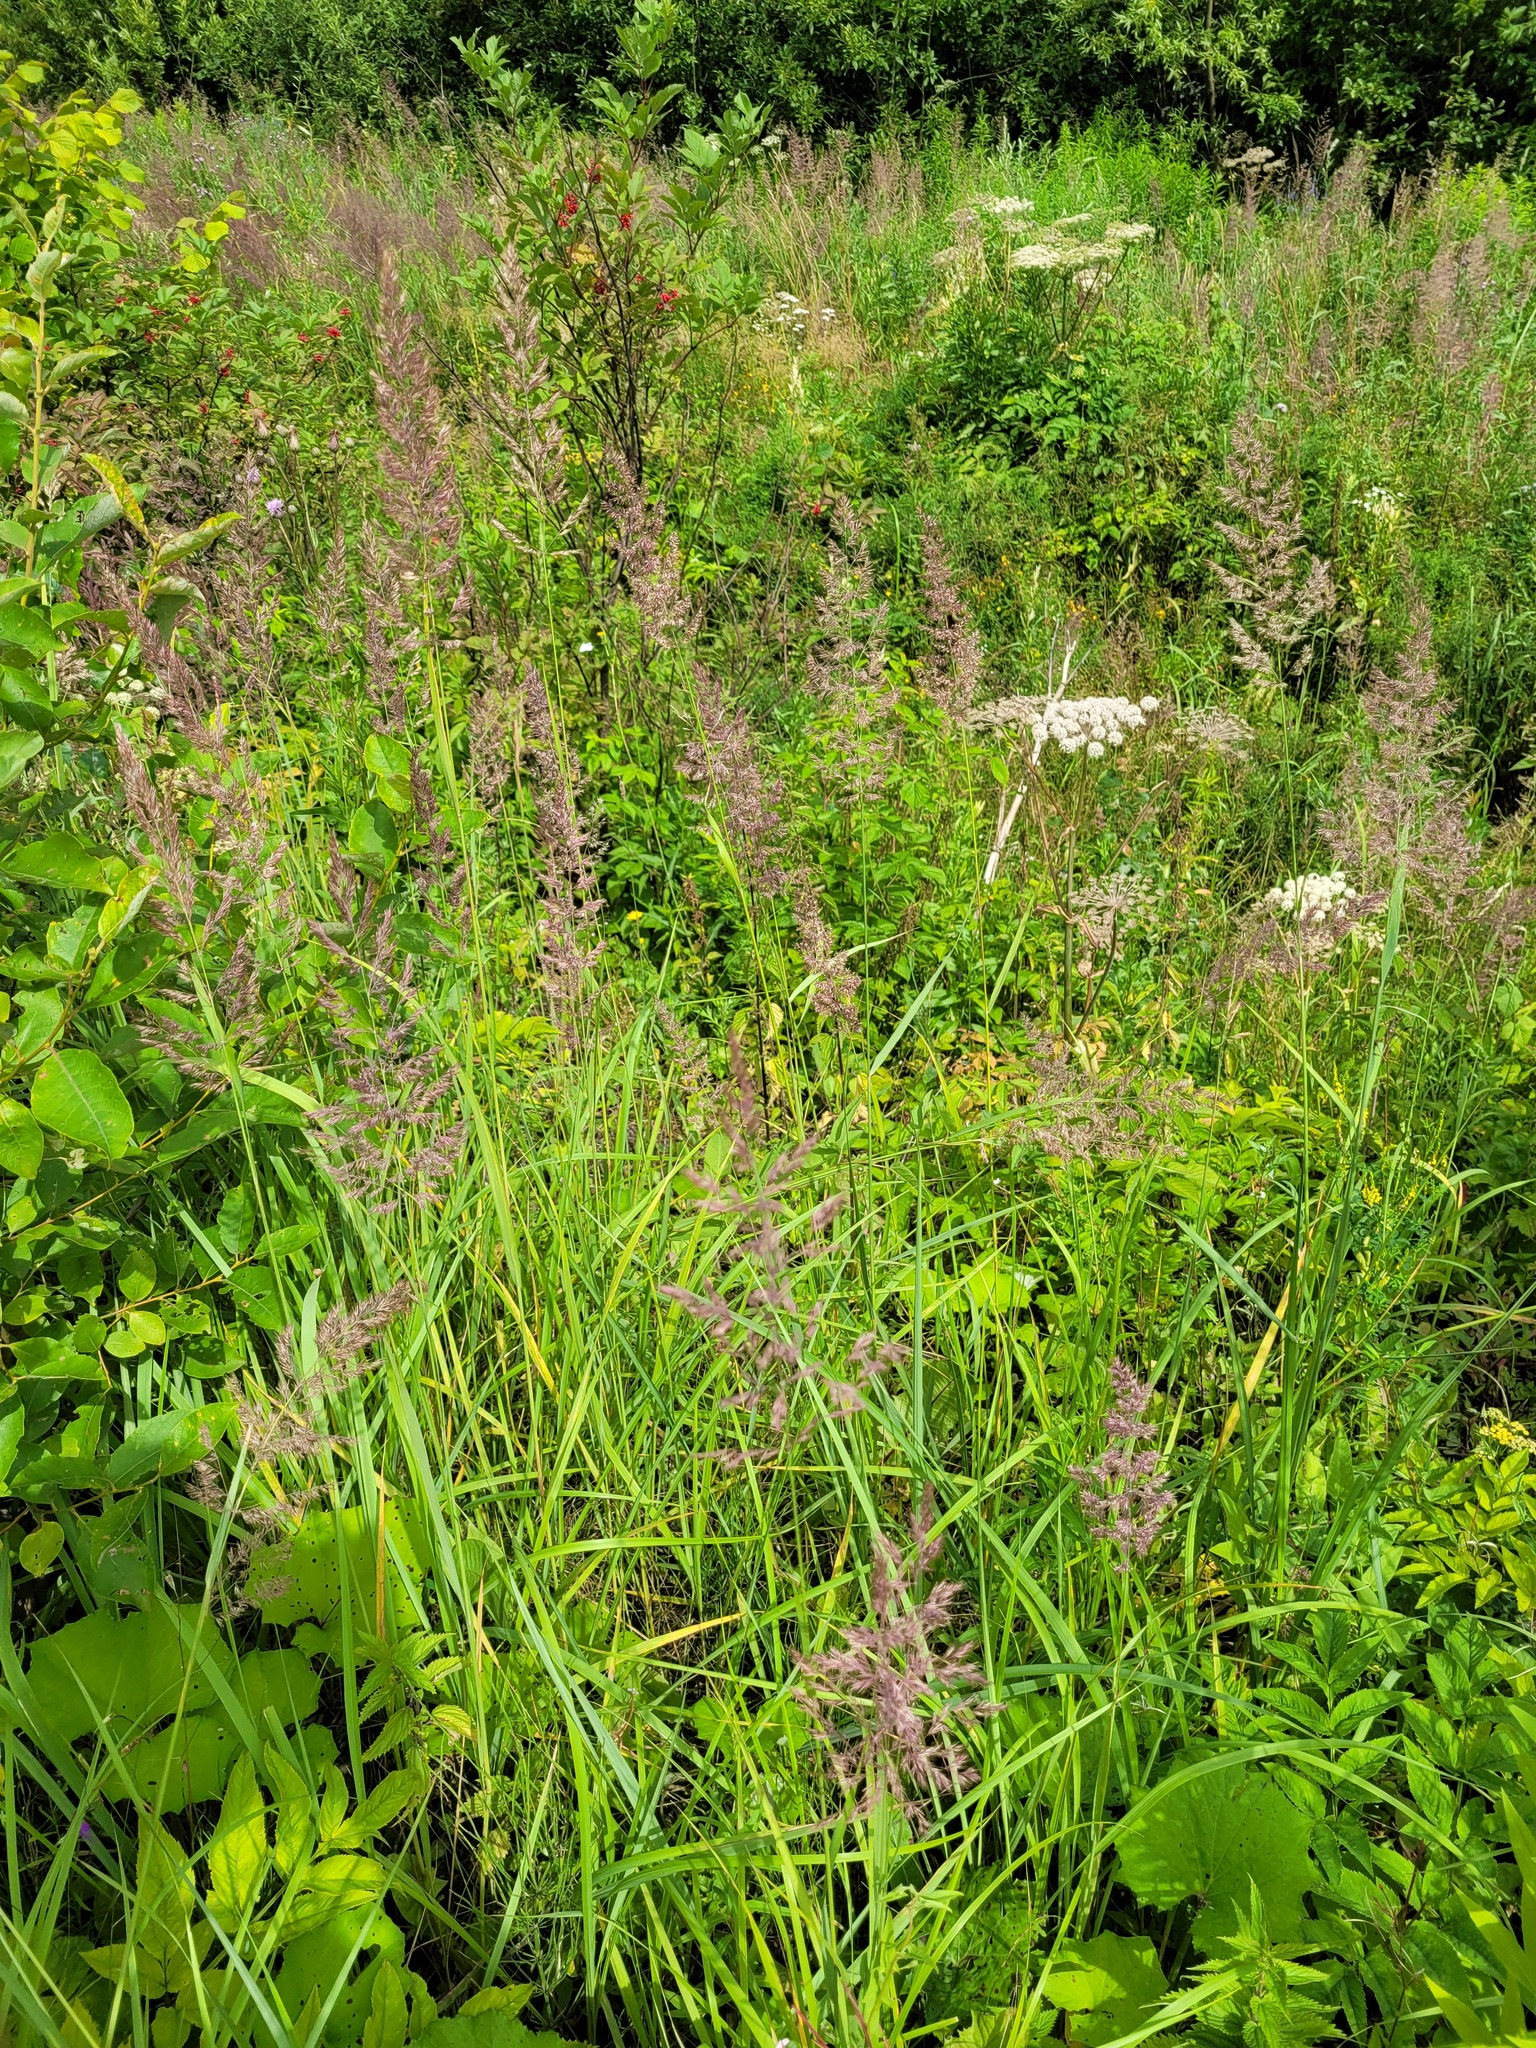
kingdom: Plantae
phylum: Tracheophyta
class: Liliopsida
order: Poales
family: Poaceae
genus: Calamagrostis
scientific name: Calamagrostis epigejos
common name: Wood small-reed
